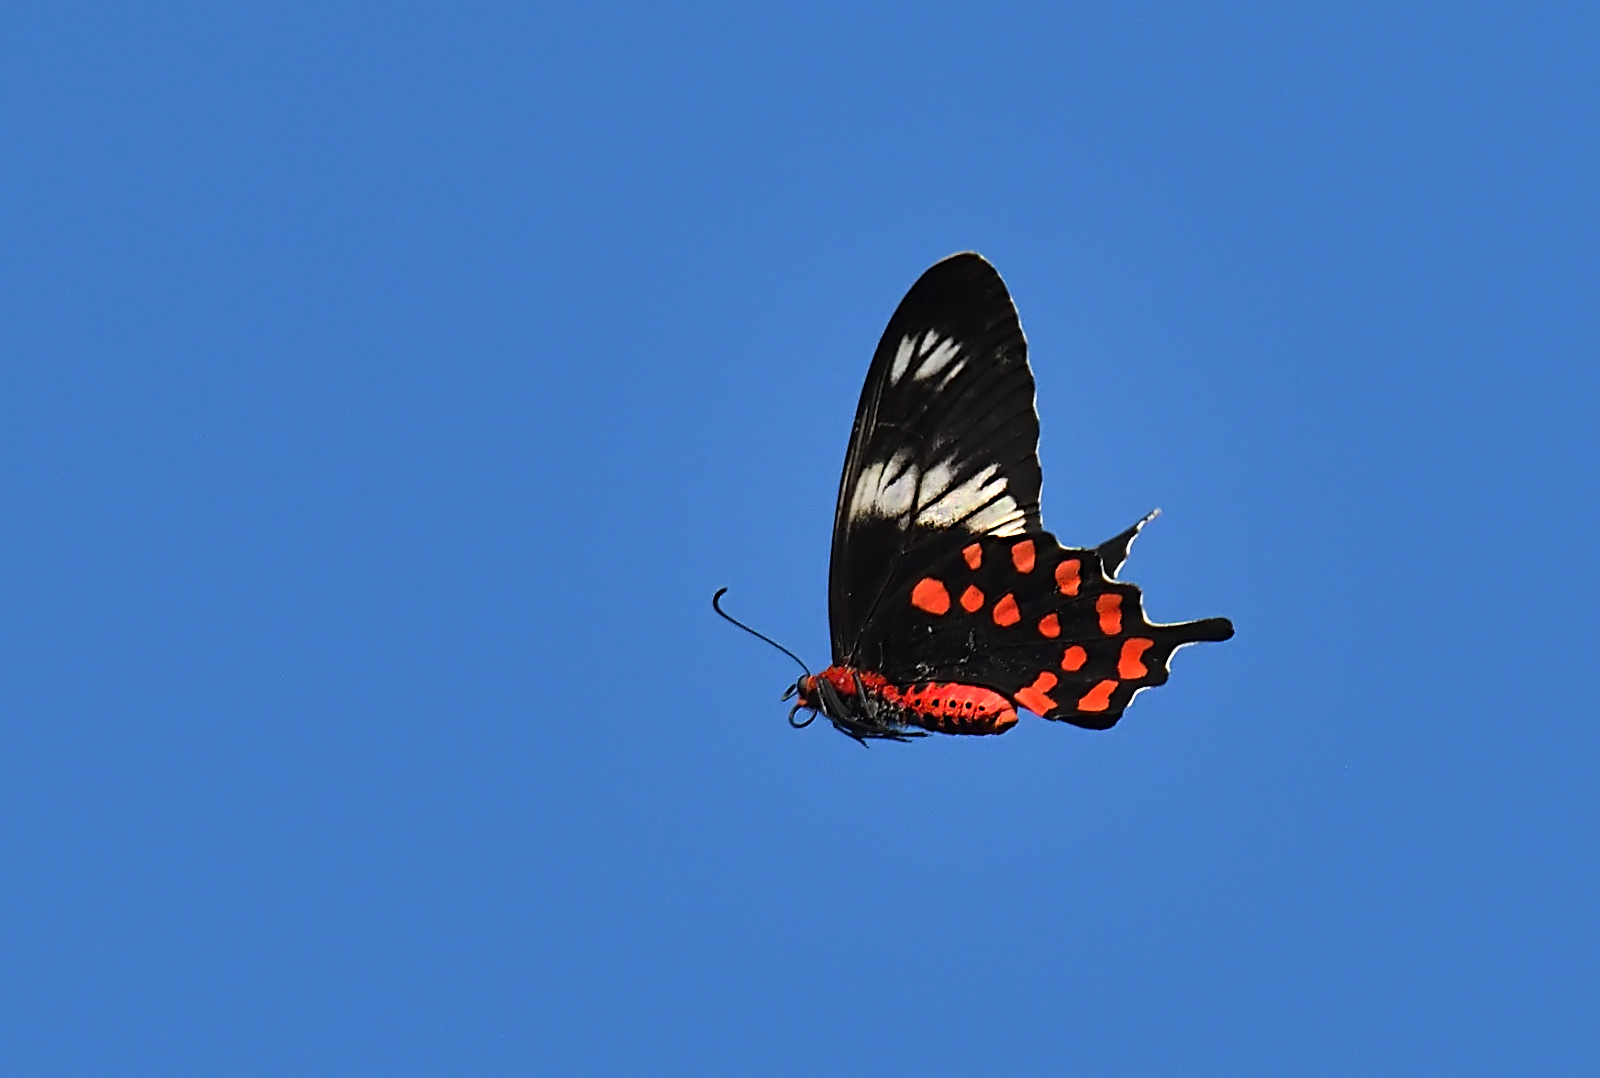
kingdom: Animalia
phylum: Arthropoda
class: Insecta
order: Lepidoptera
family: Papilionidae
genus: Pachliopta
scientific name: Pachliopta hector
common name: Crimson rose
